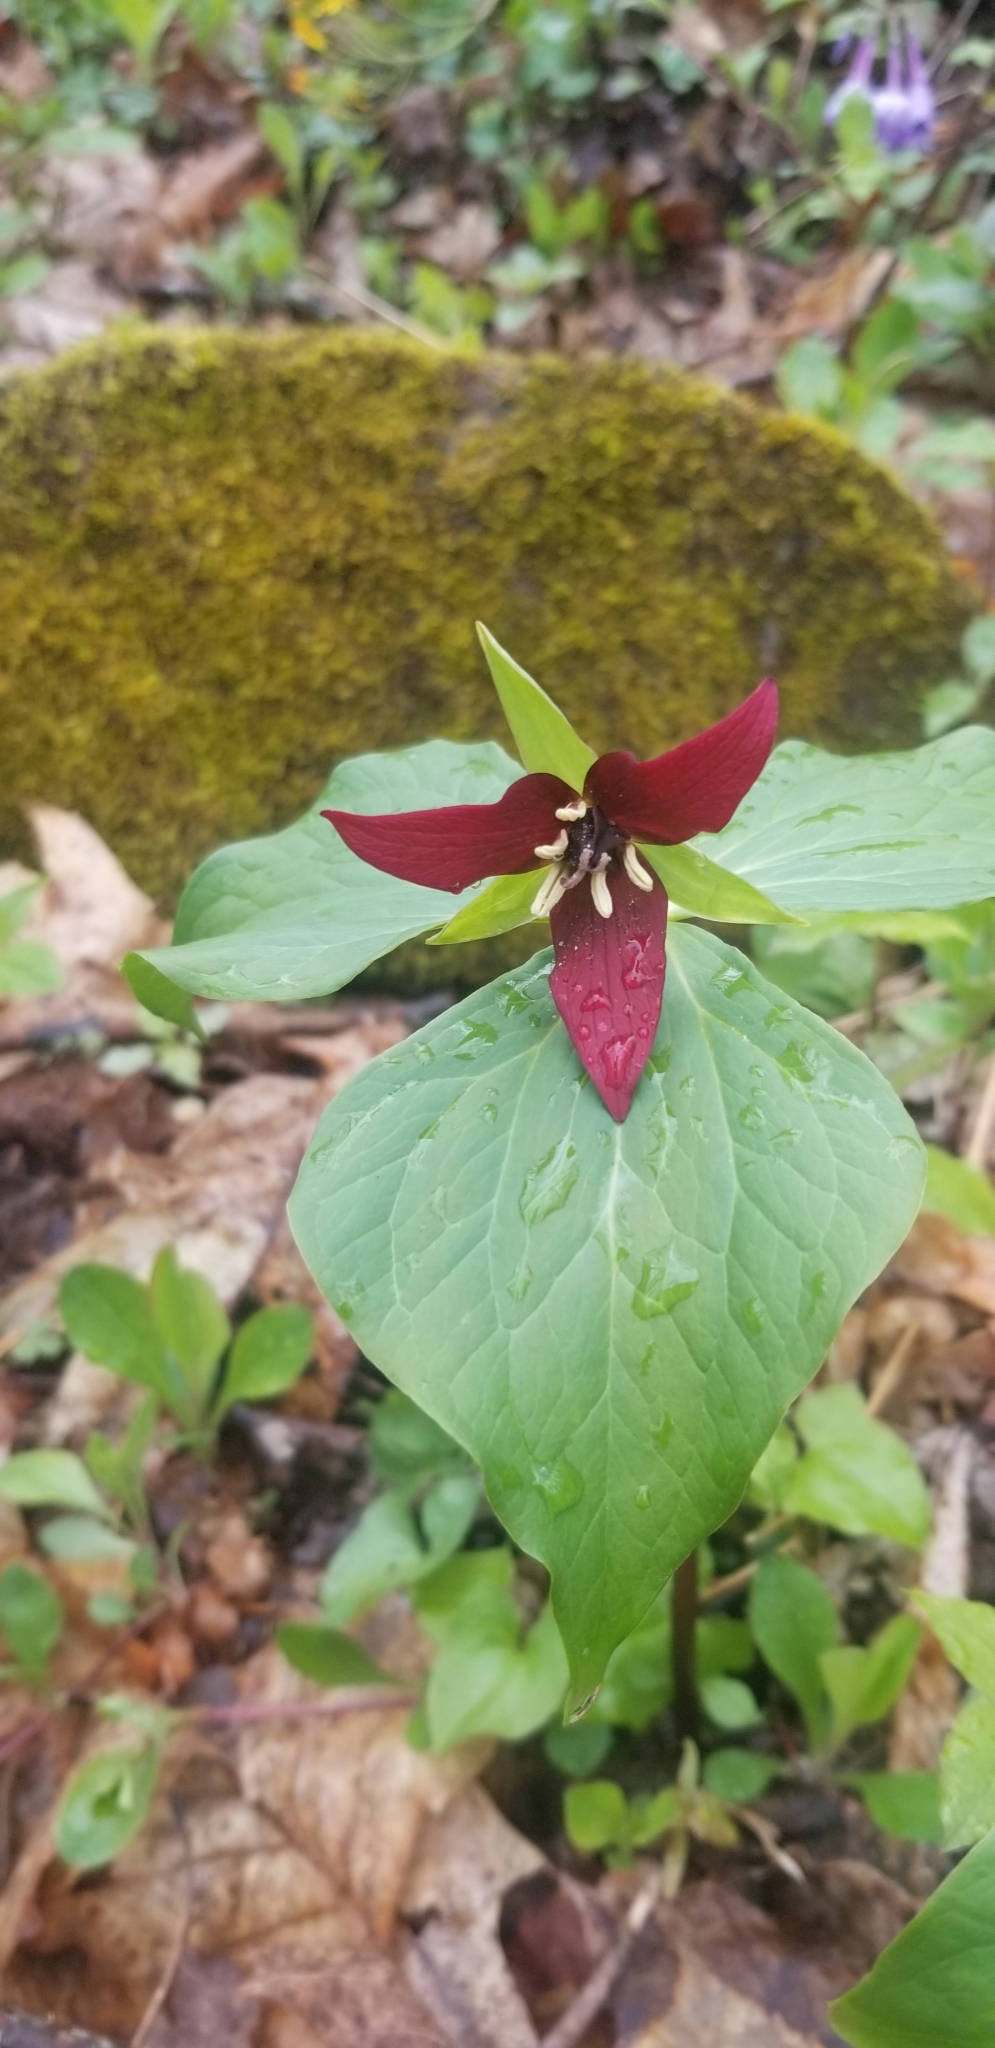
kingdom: Plantae
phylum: Tracheophyta
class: Liliopsida
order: Liliales
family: Melanthiaceae
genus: Trillium
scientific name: Trillium erectum
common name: Purple trillium
